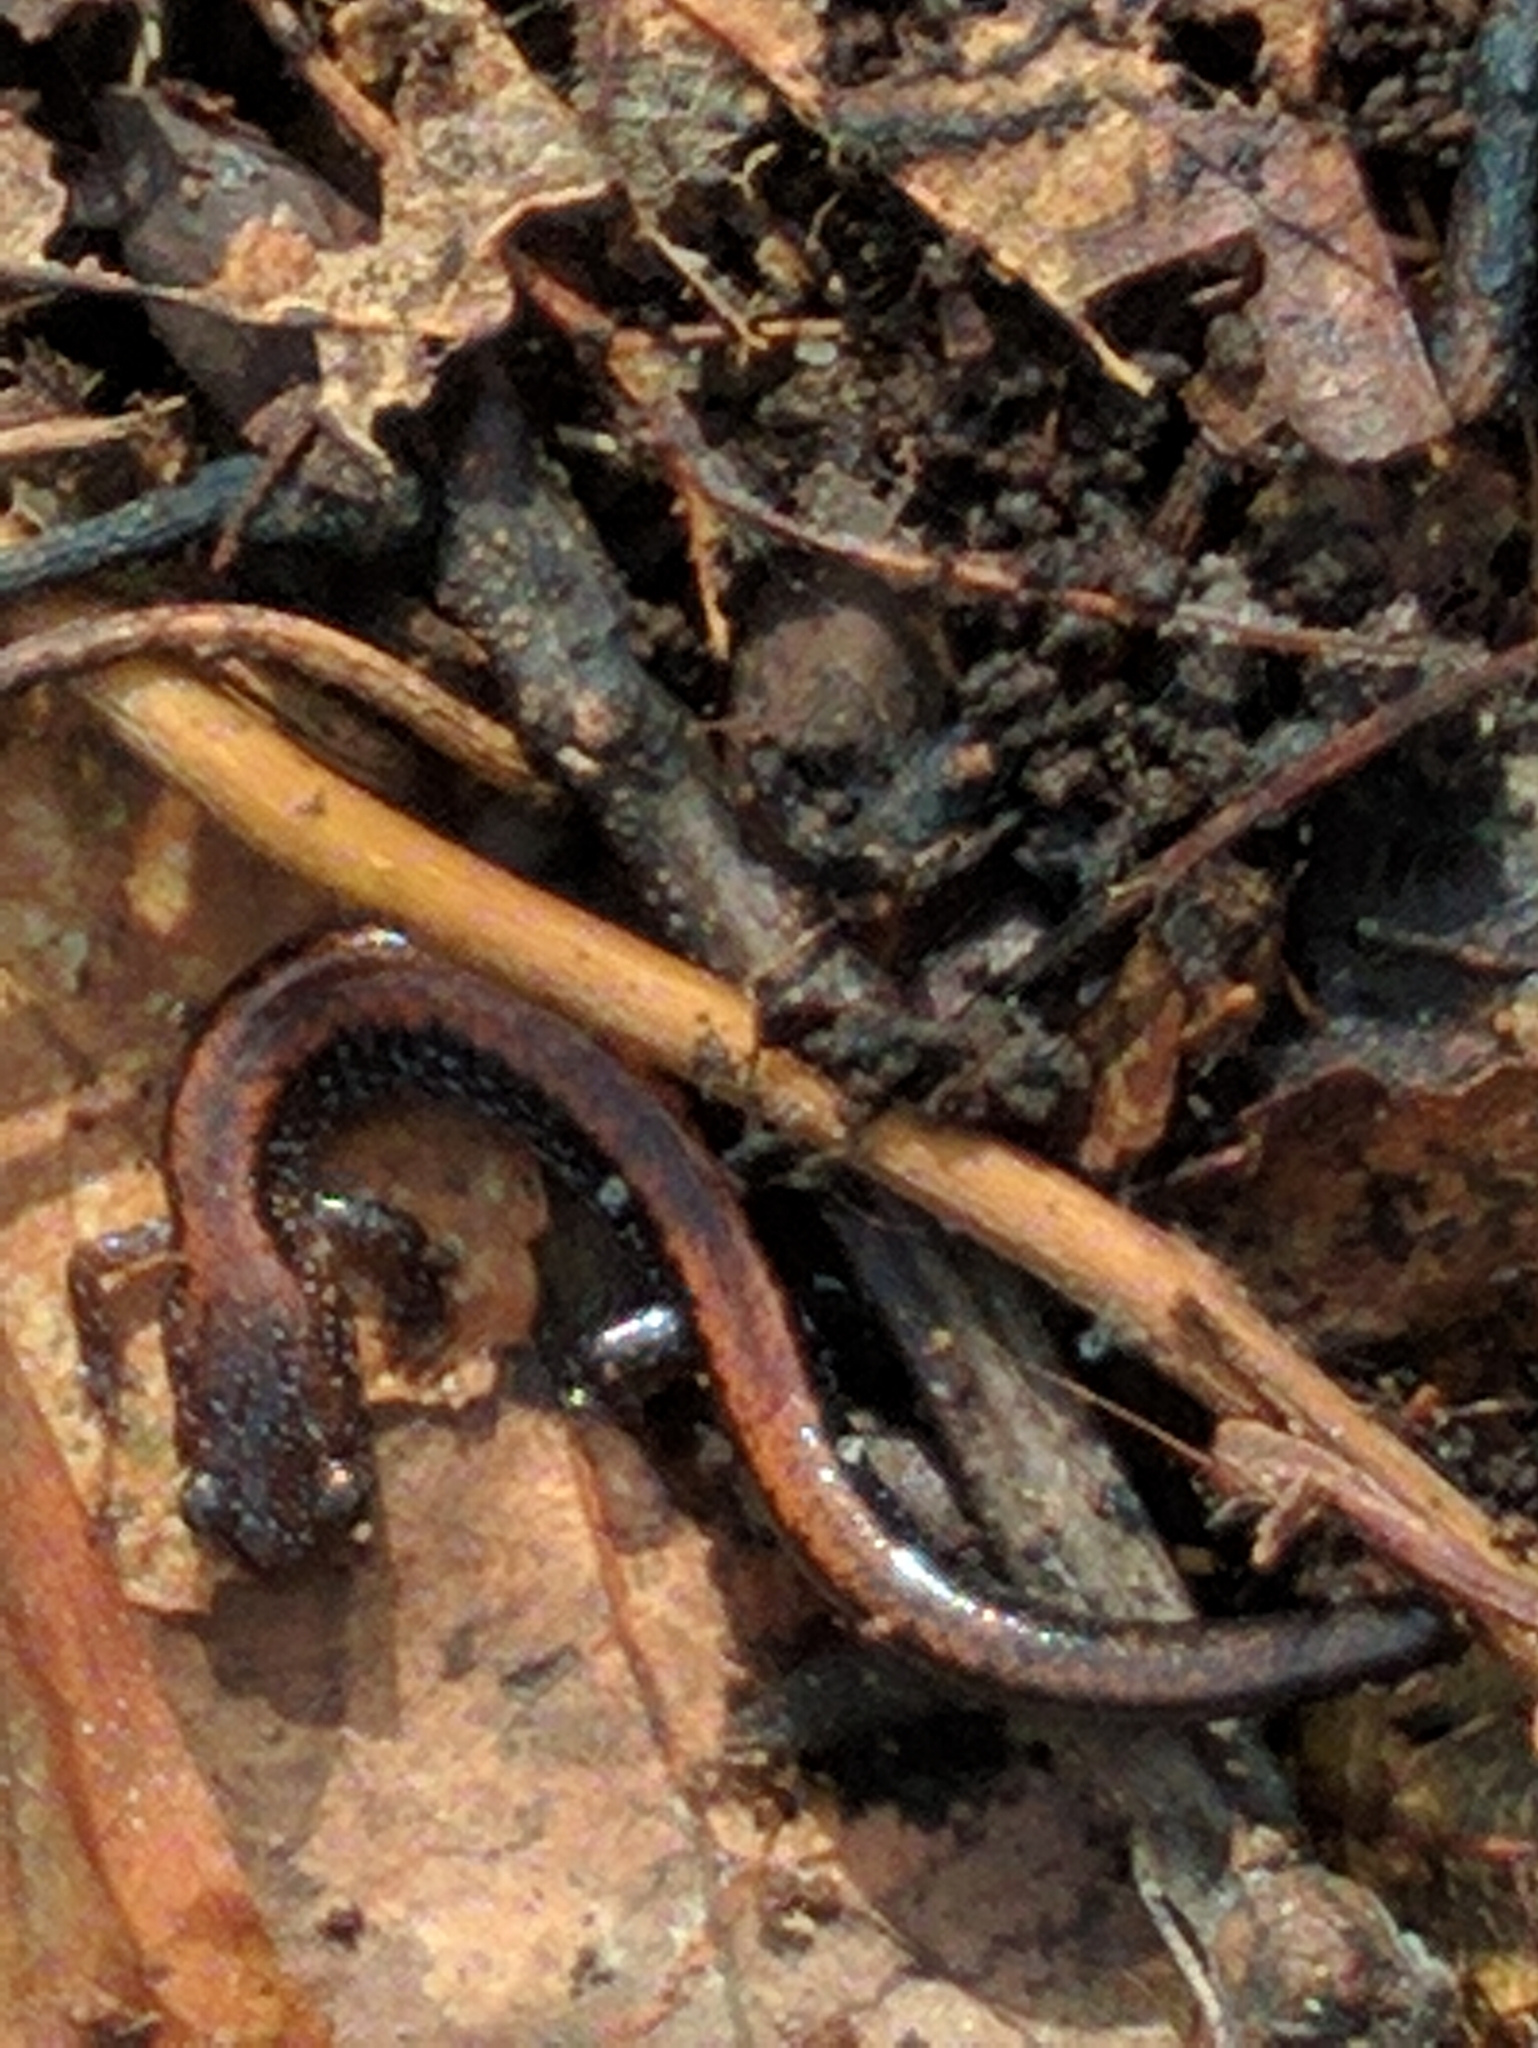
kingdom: Animalia
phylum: Chordata
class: Amphibia
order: Caudata
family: Plethodontidae
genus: Plethodon
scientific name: Plethodon cinereus
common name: Redback salamander
